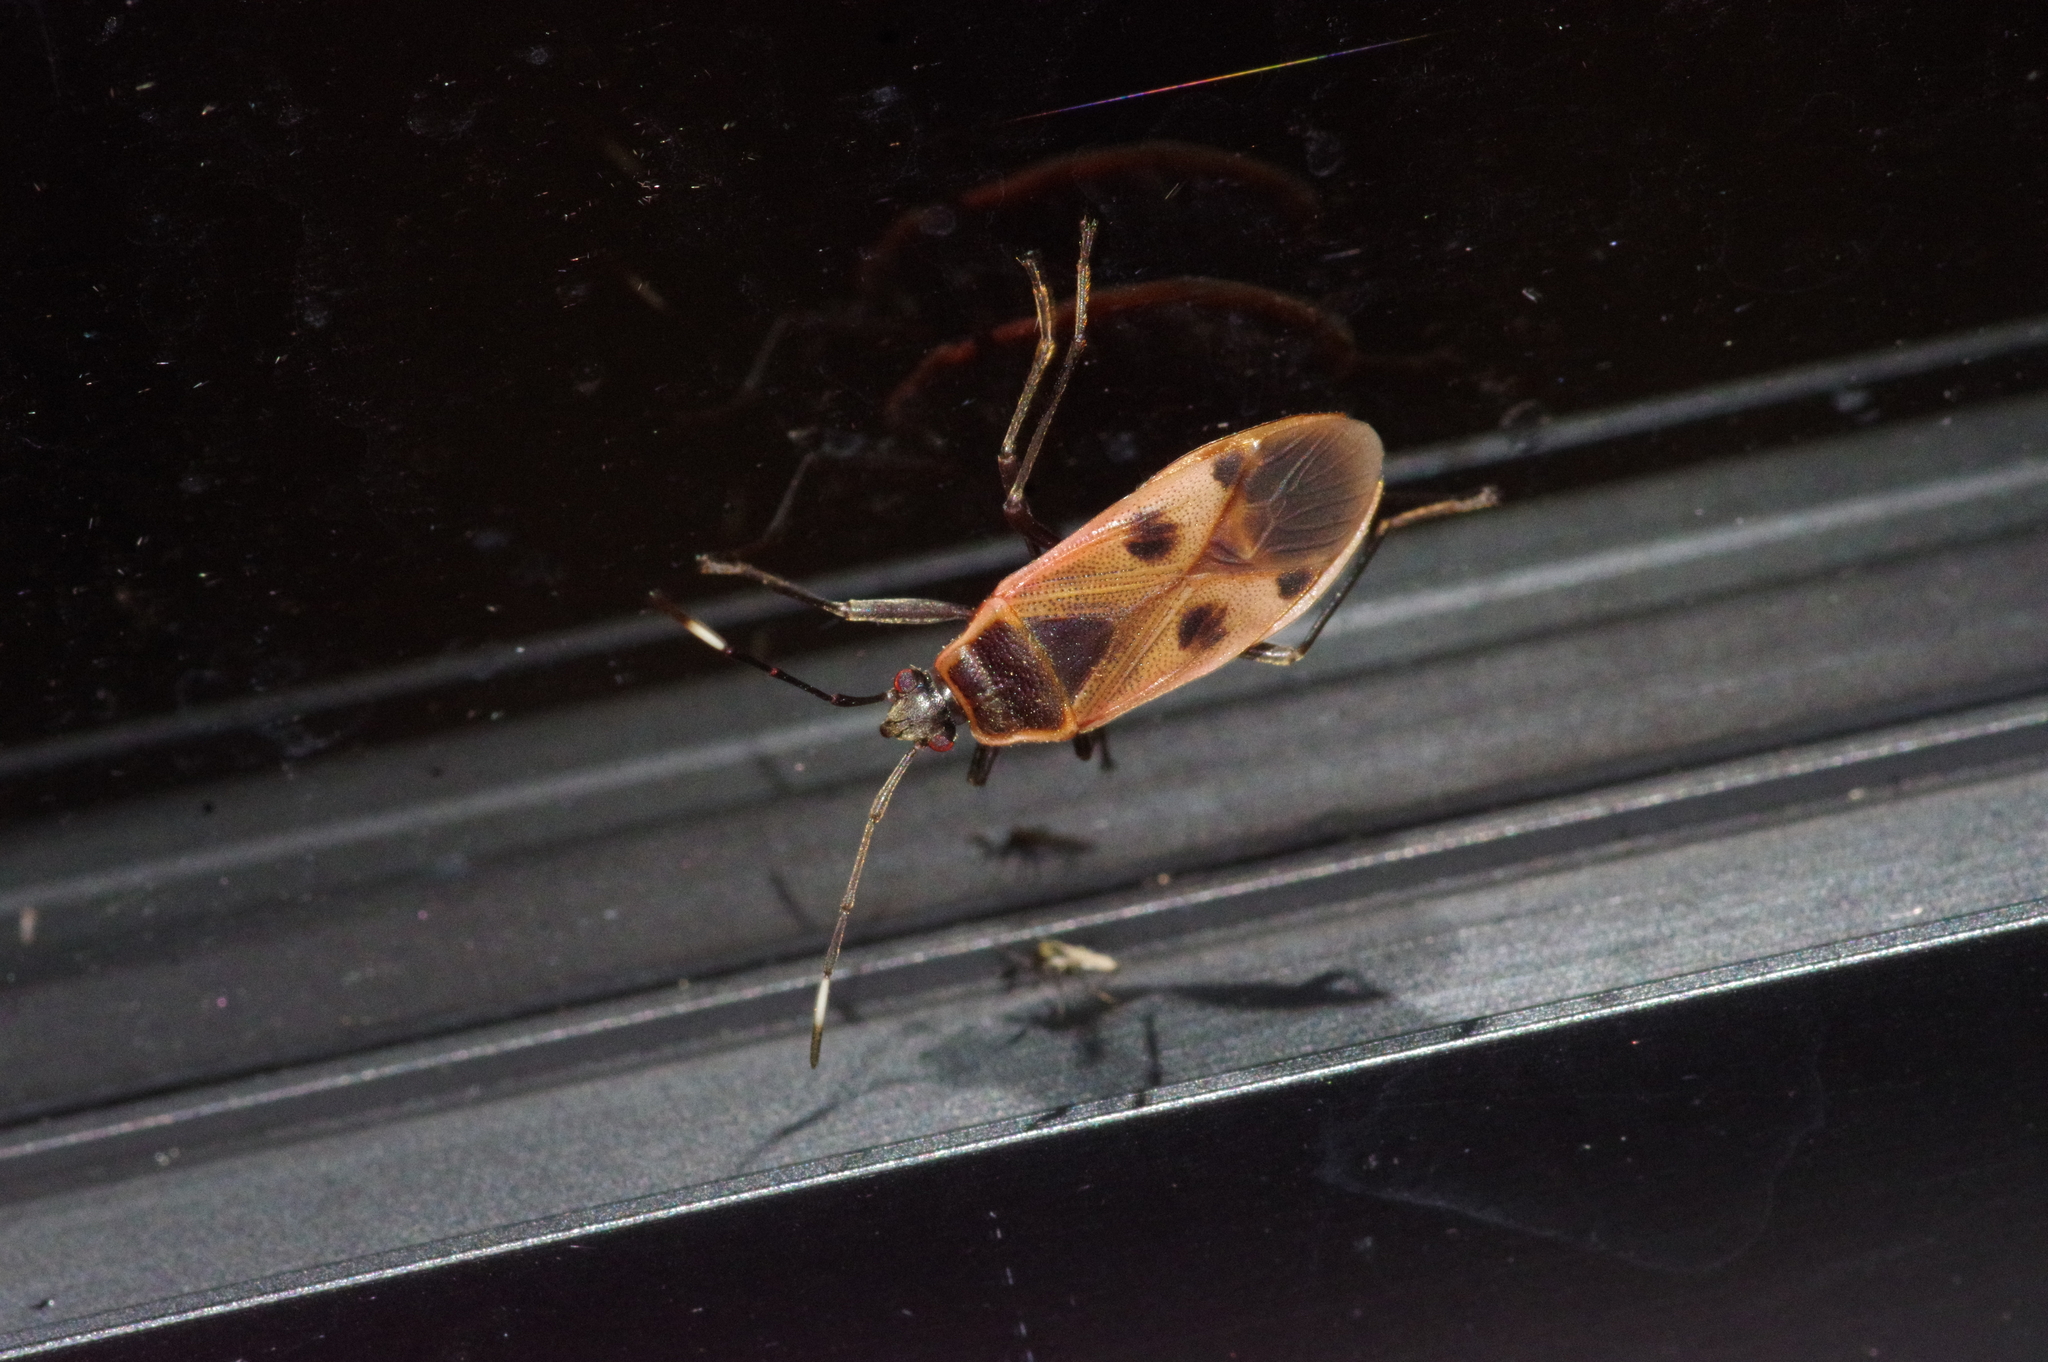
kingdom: Animalia
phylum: Arthropoda
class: Insecta
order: Hemiptera
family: Largidae
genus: Physopelta
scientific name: Physopelta parviceps
